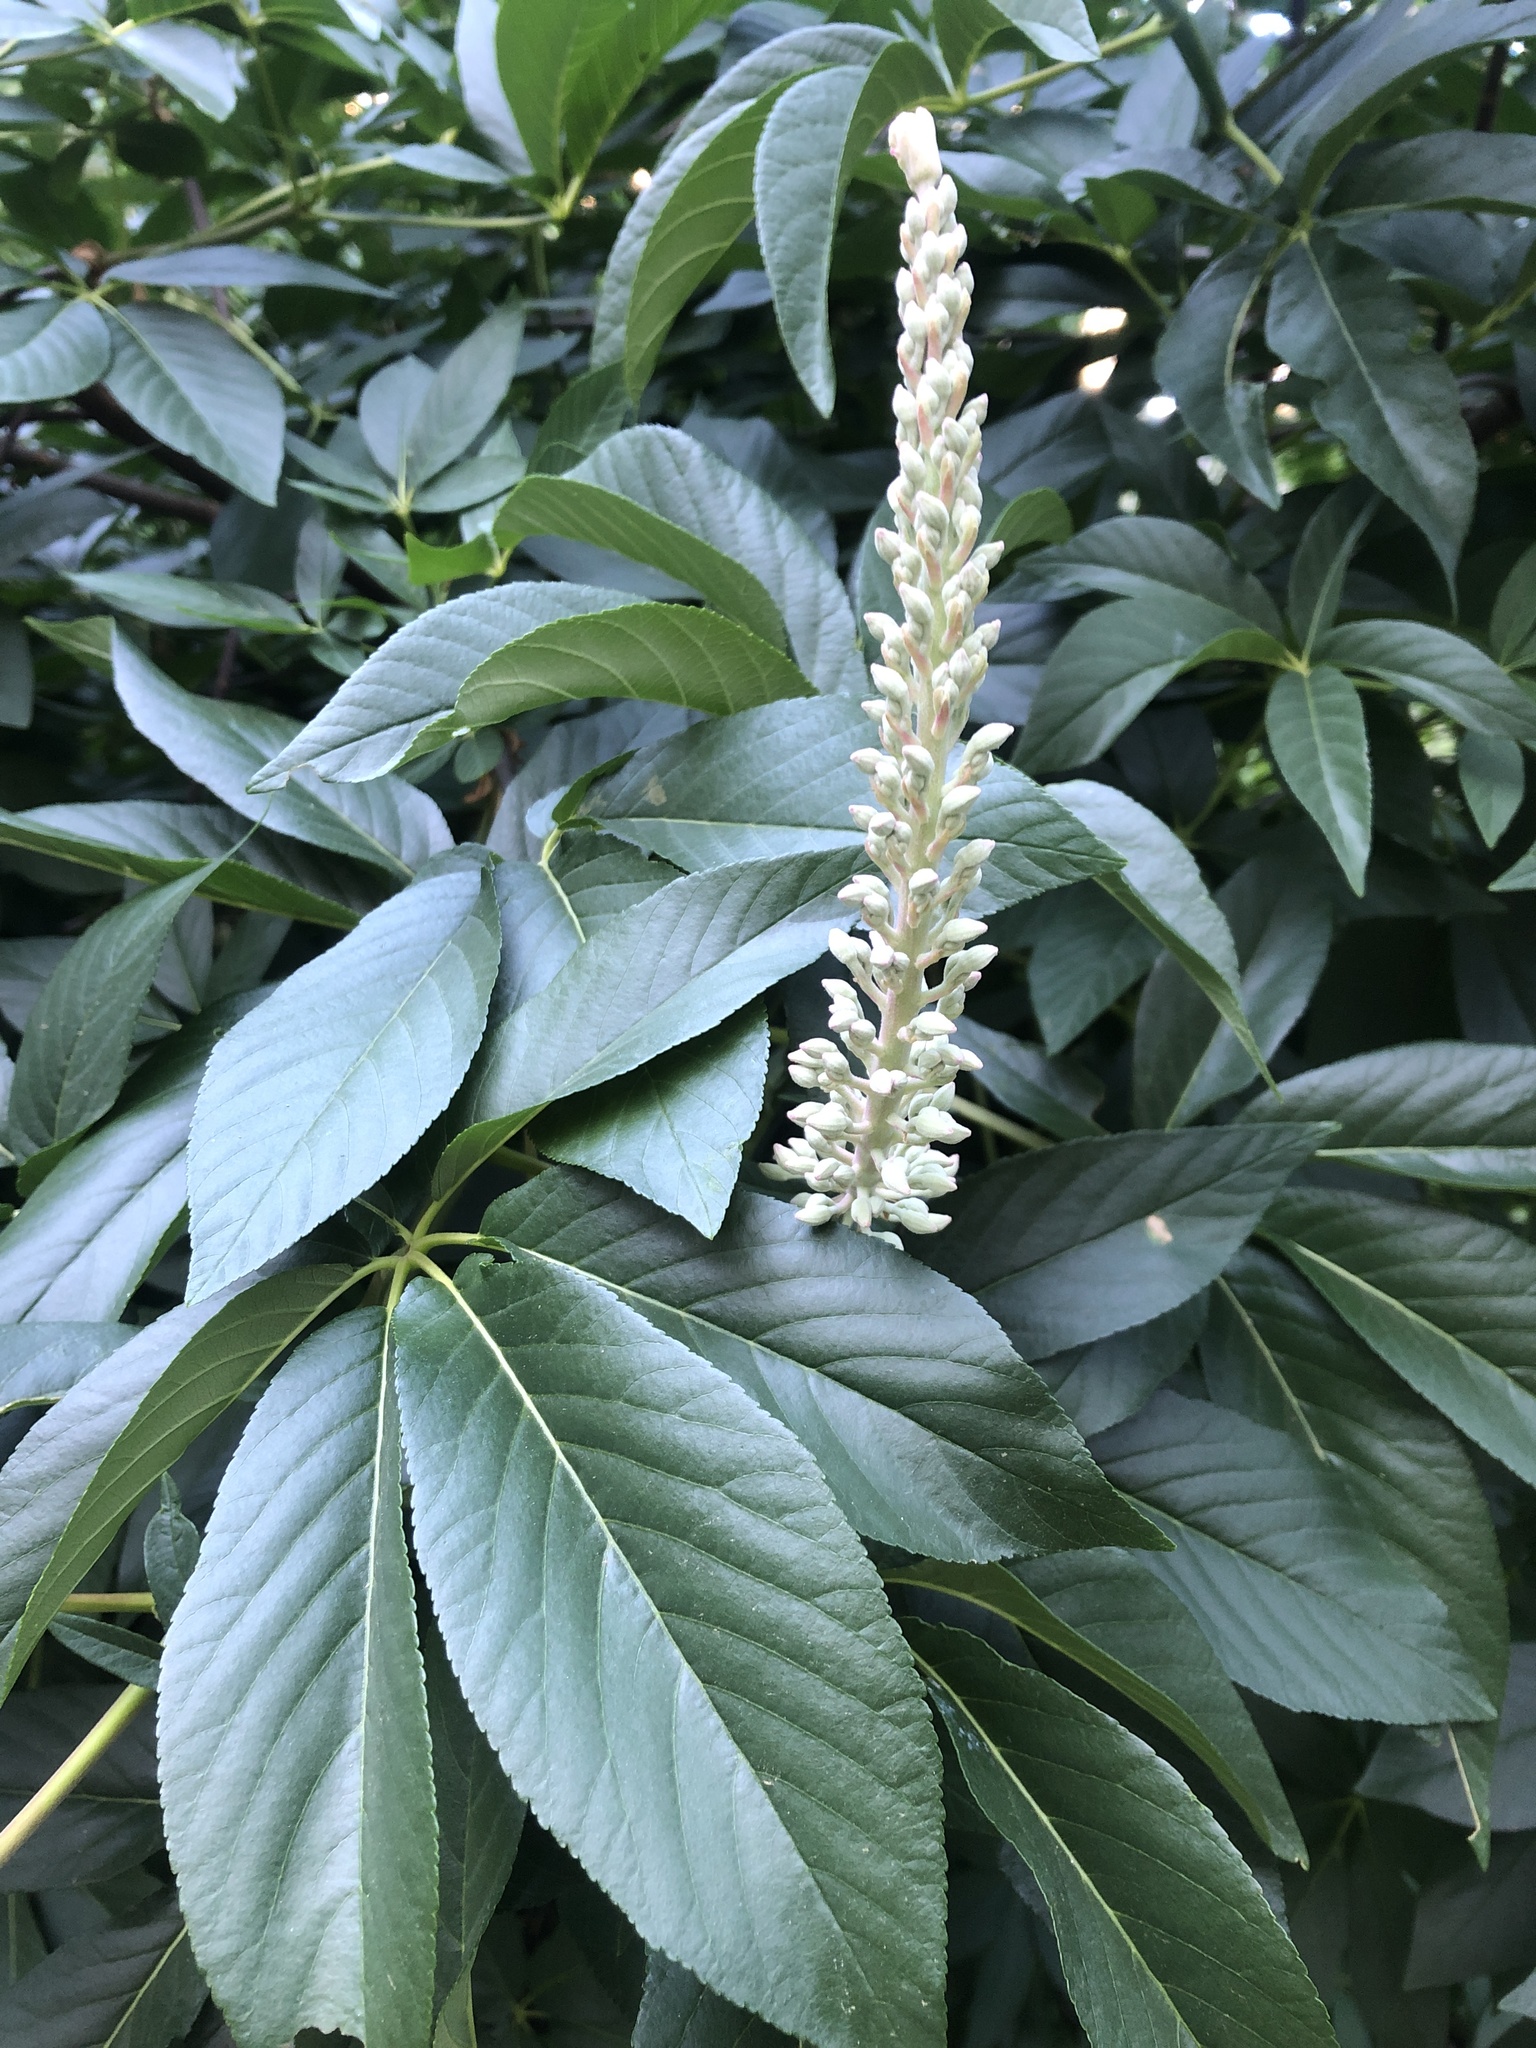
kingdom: Plantae
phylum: Tracheophyta
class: Magnoliopsida
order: Sapindales
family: Sapindaceae
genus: Aesculus
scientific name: Aesculus californica
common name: California buckeye
